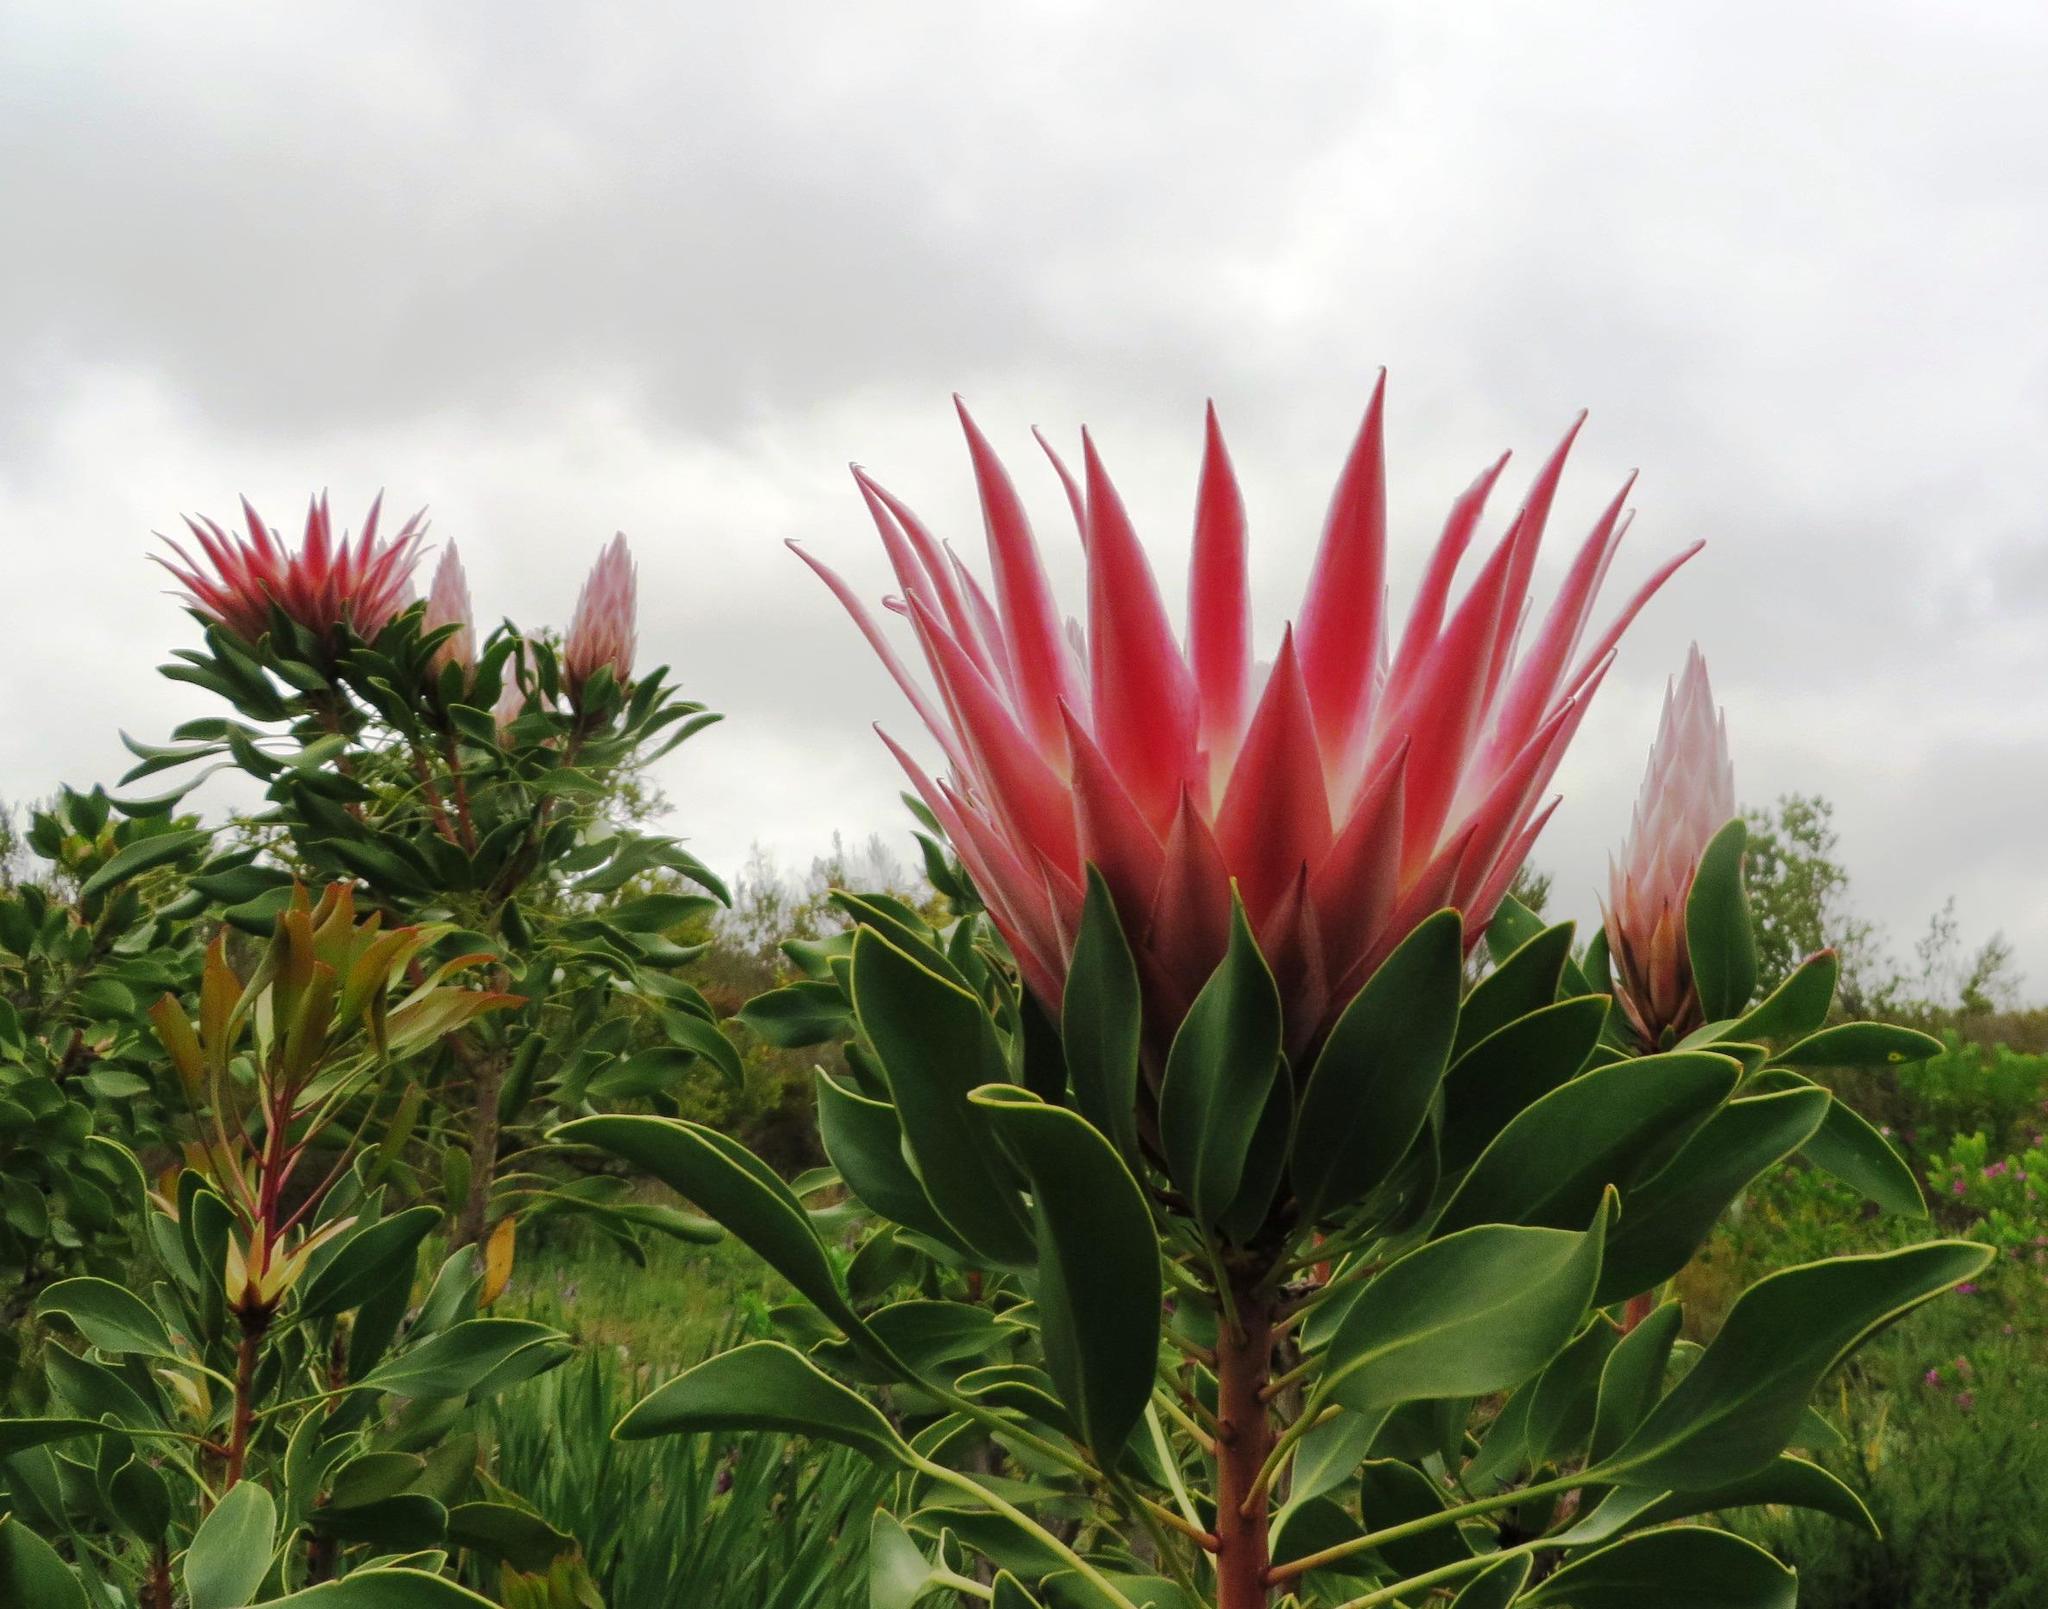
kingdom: Plantae
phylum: Tracheophyta
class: Magnoliopsida
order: Proteales
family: Proteaceae
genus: Protea
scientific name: Protea cynaroides
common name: King protea
